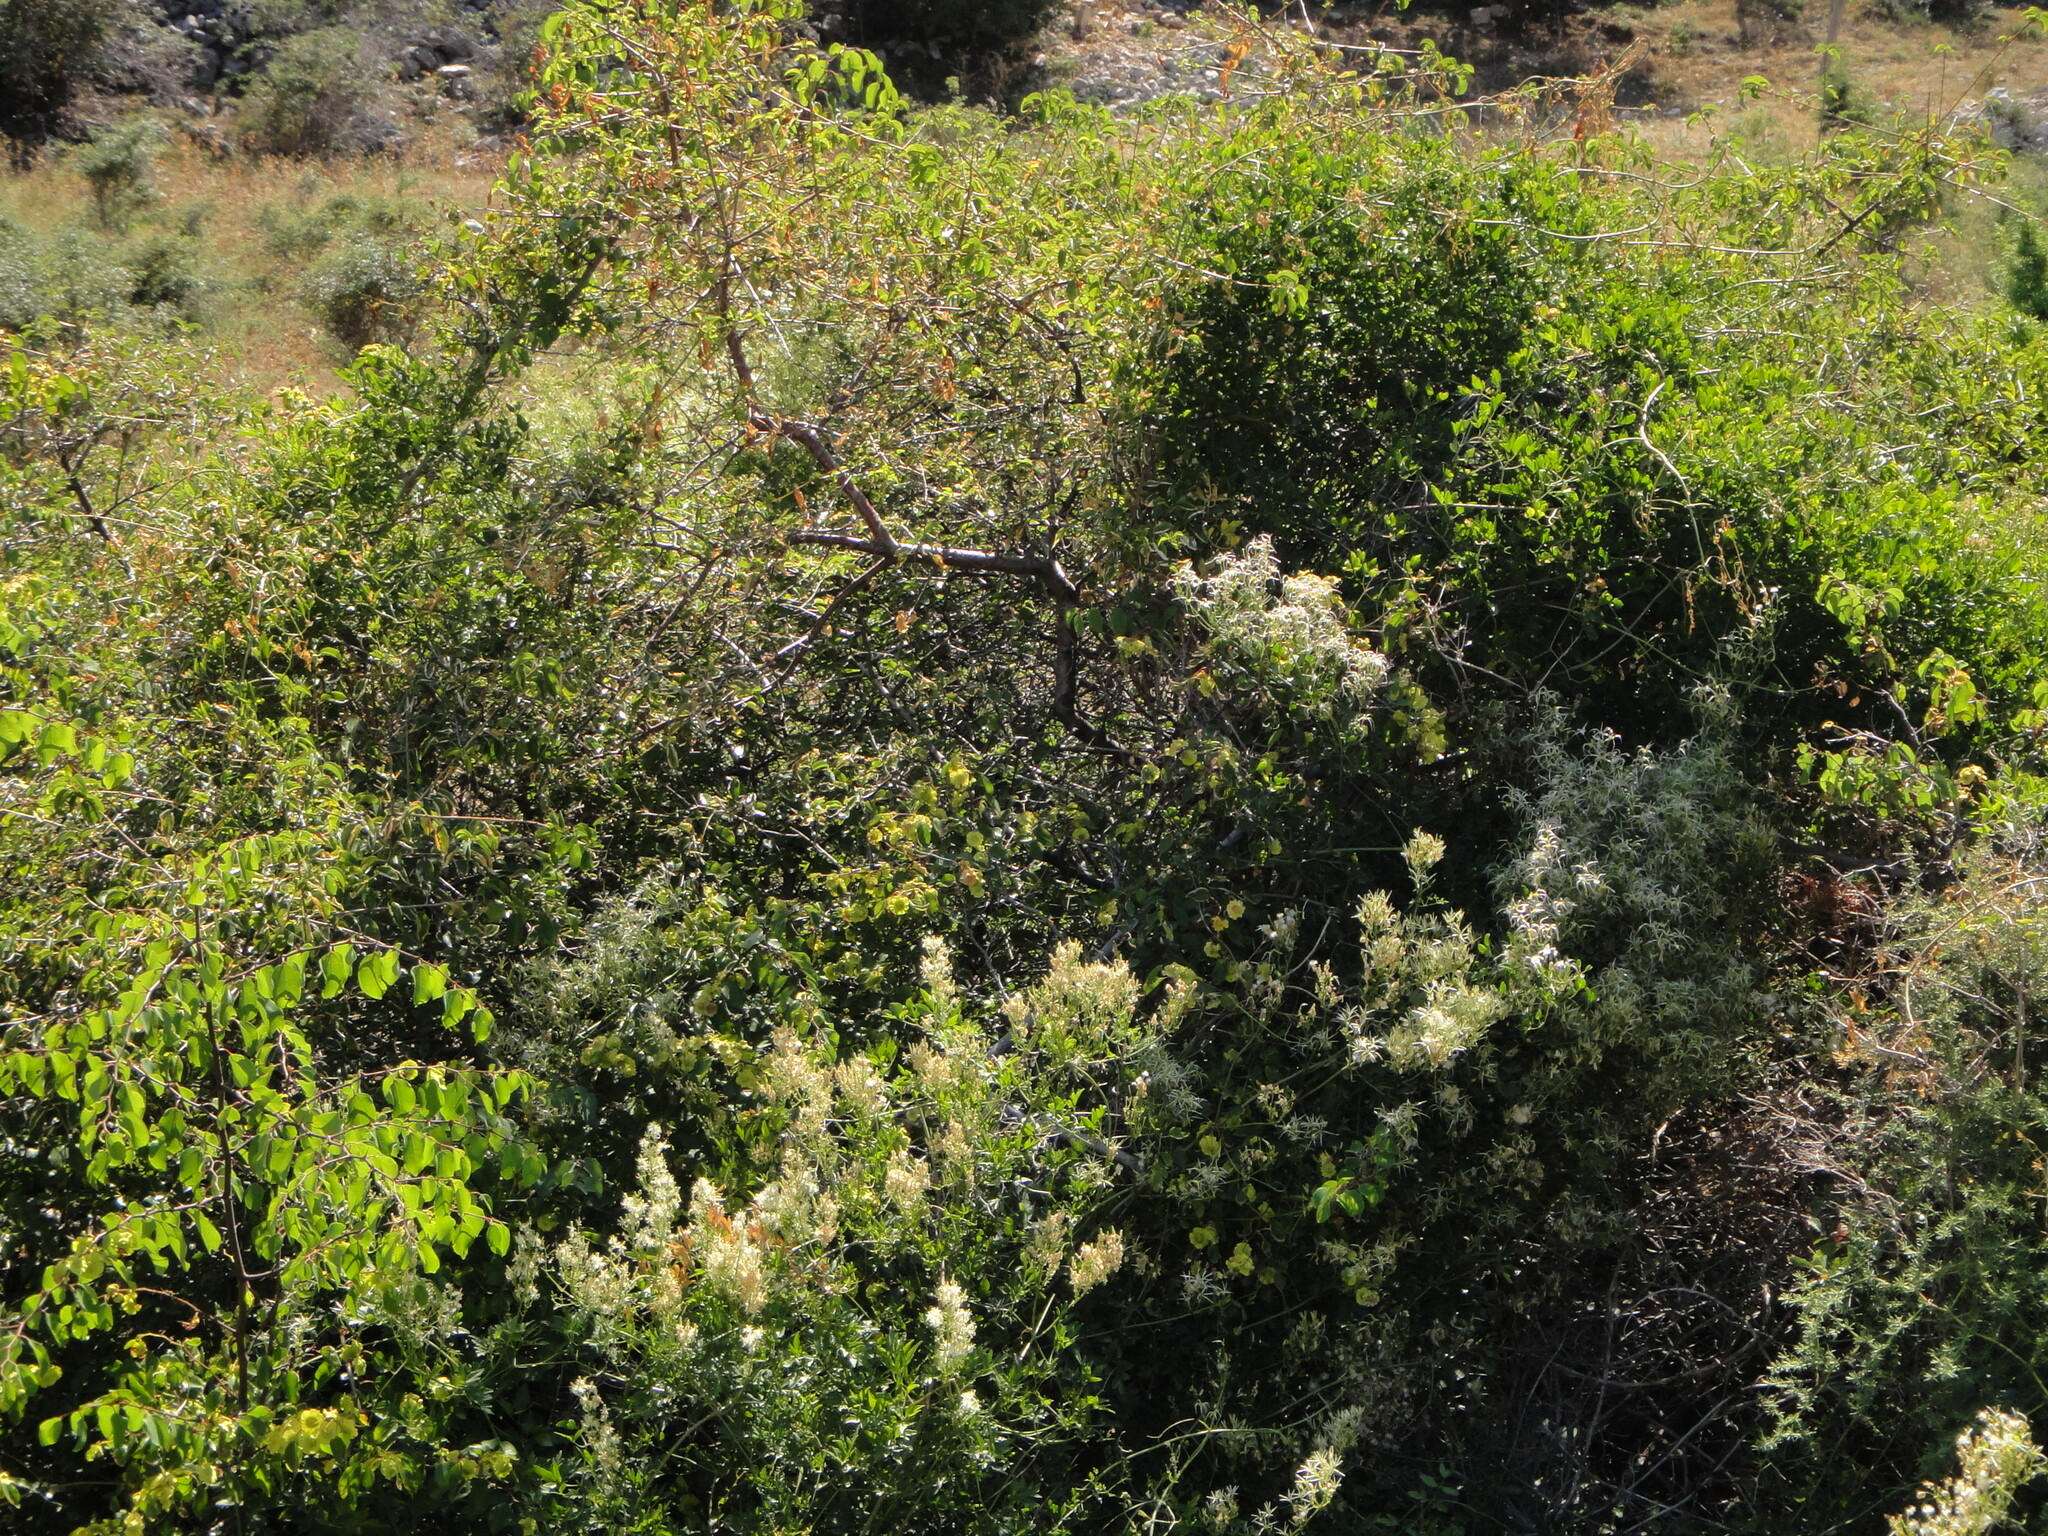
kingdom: Plantae
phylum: Tracheophyta
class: Magnoliopsida
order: Ranunculales
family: Ranunculaceae
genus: Clematis
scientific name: Clematis flammula
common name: Virgin's-bower
